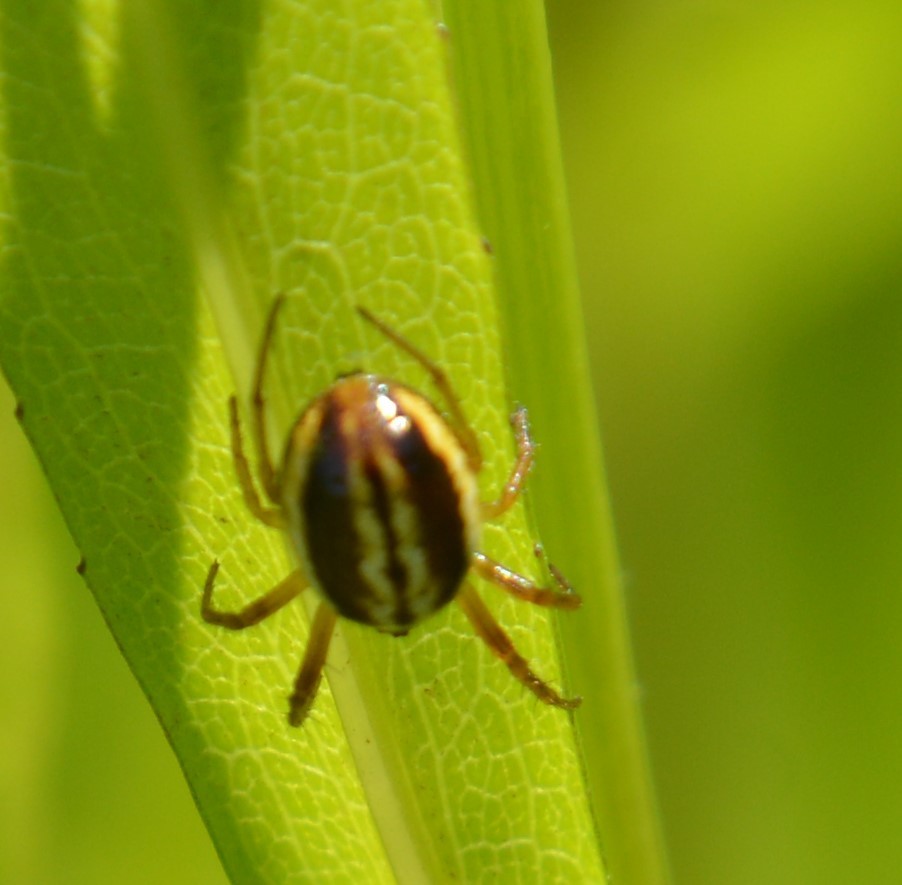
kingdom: Animalia
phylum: Arthropoda
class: Arachnida
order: Araneae
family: Araneidae
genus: Araneus
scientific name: Araneus pratensis
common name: Openfield orbweaver
